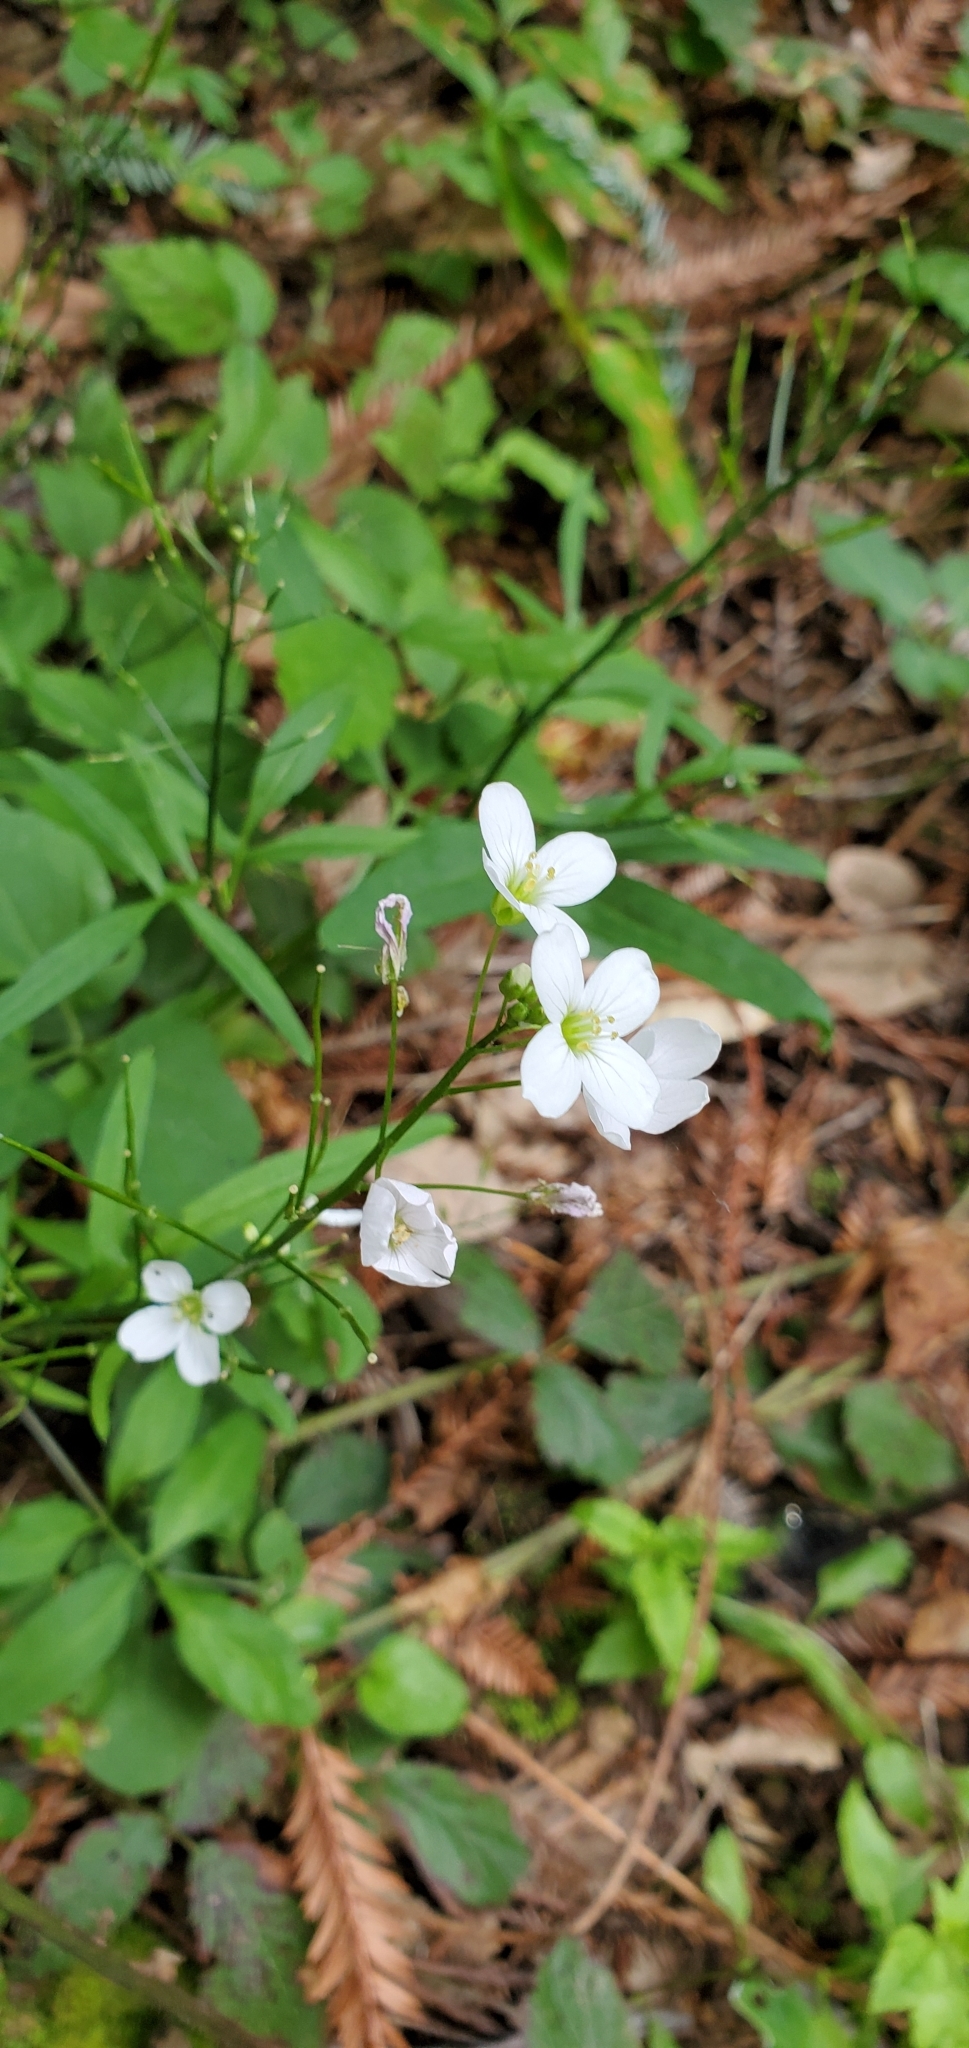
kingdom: Plantae
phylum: Tracheophyta
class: Magnoliopsida
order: Brassicales
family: Brassicaceae
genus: Cardamine
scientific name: Cardamine californica
